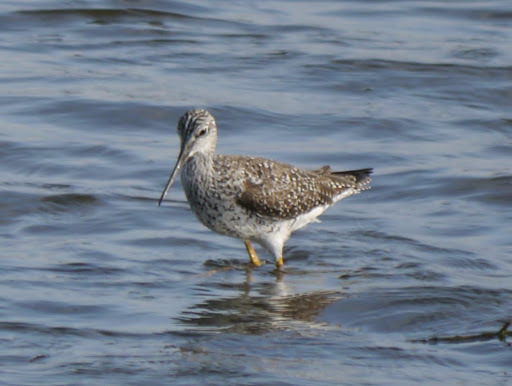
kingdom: Animalia
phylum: Chordata
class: Aves
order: Charadriiformes
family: Scolopacidae
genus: Tringa
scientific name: Tringa melanoleuca
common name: Greater yellowlegs
